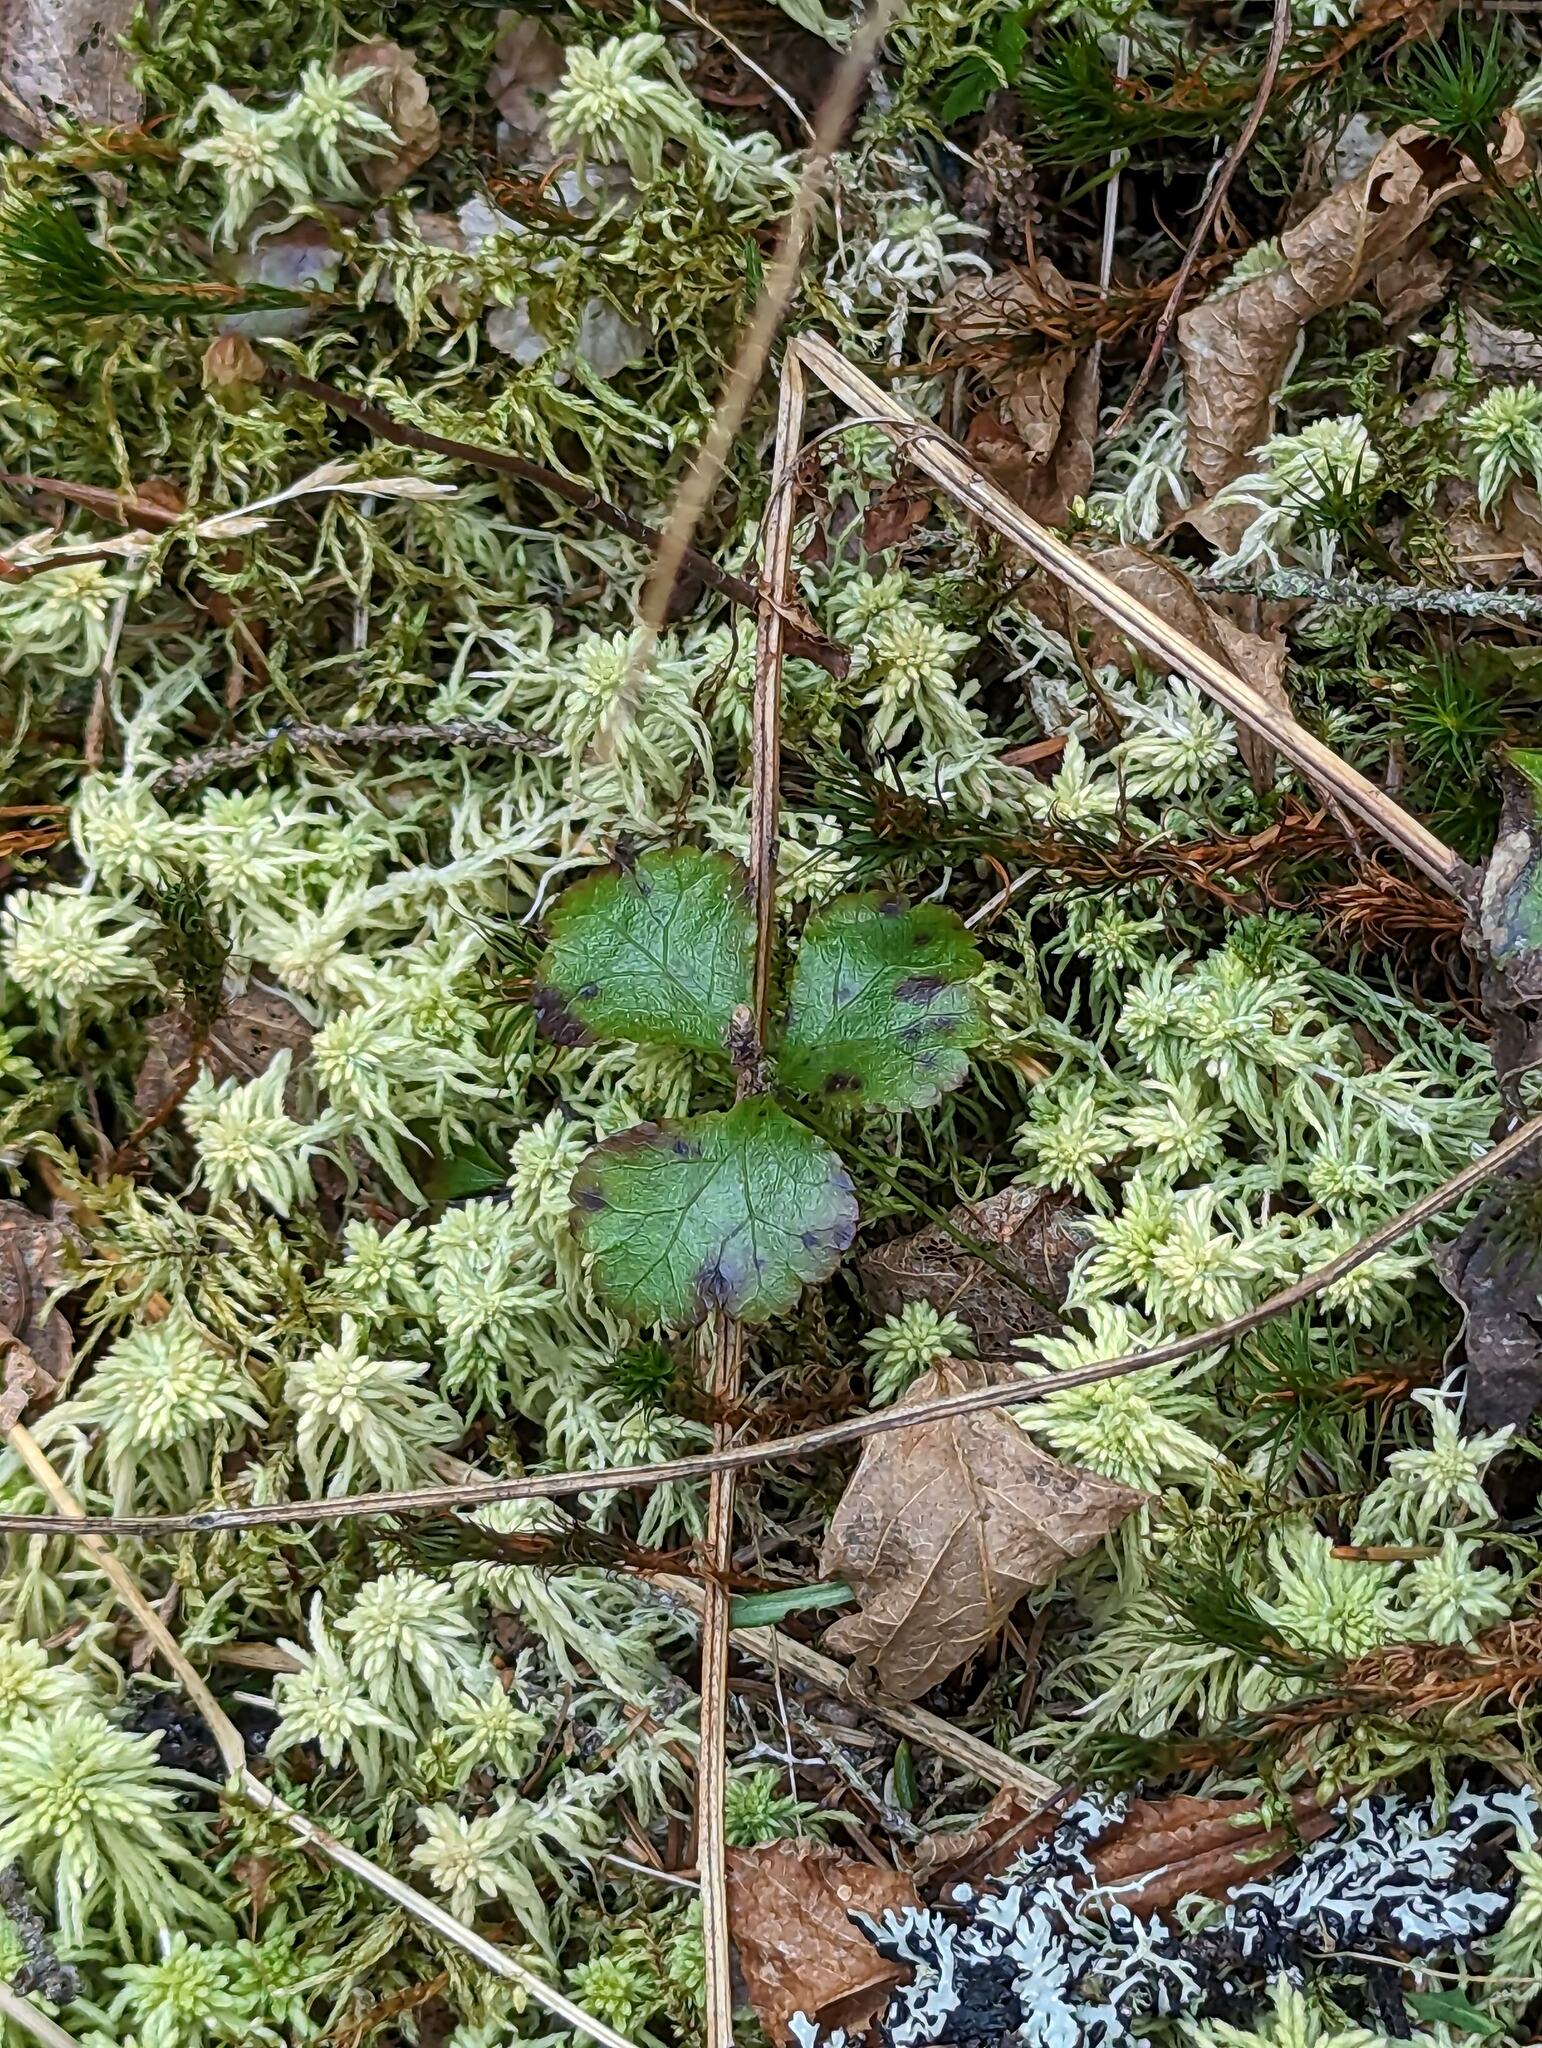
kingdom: Plantae
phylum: Tracheophyta
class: Magnoliopsida
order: Ranunculales
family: Ranunculaceae
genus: Coptis
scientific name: Coptis trifolia
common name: Canker-root
